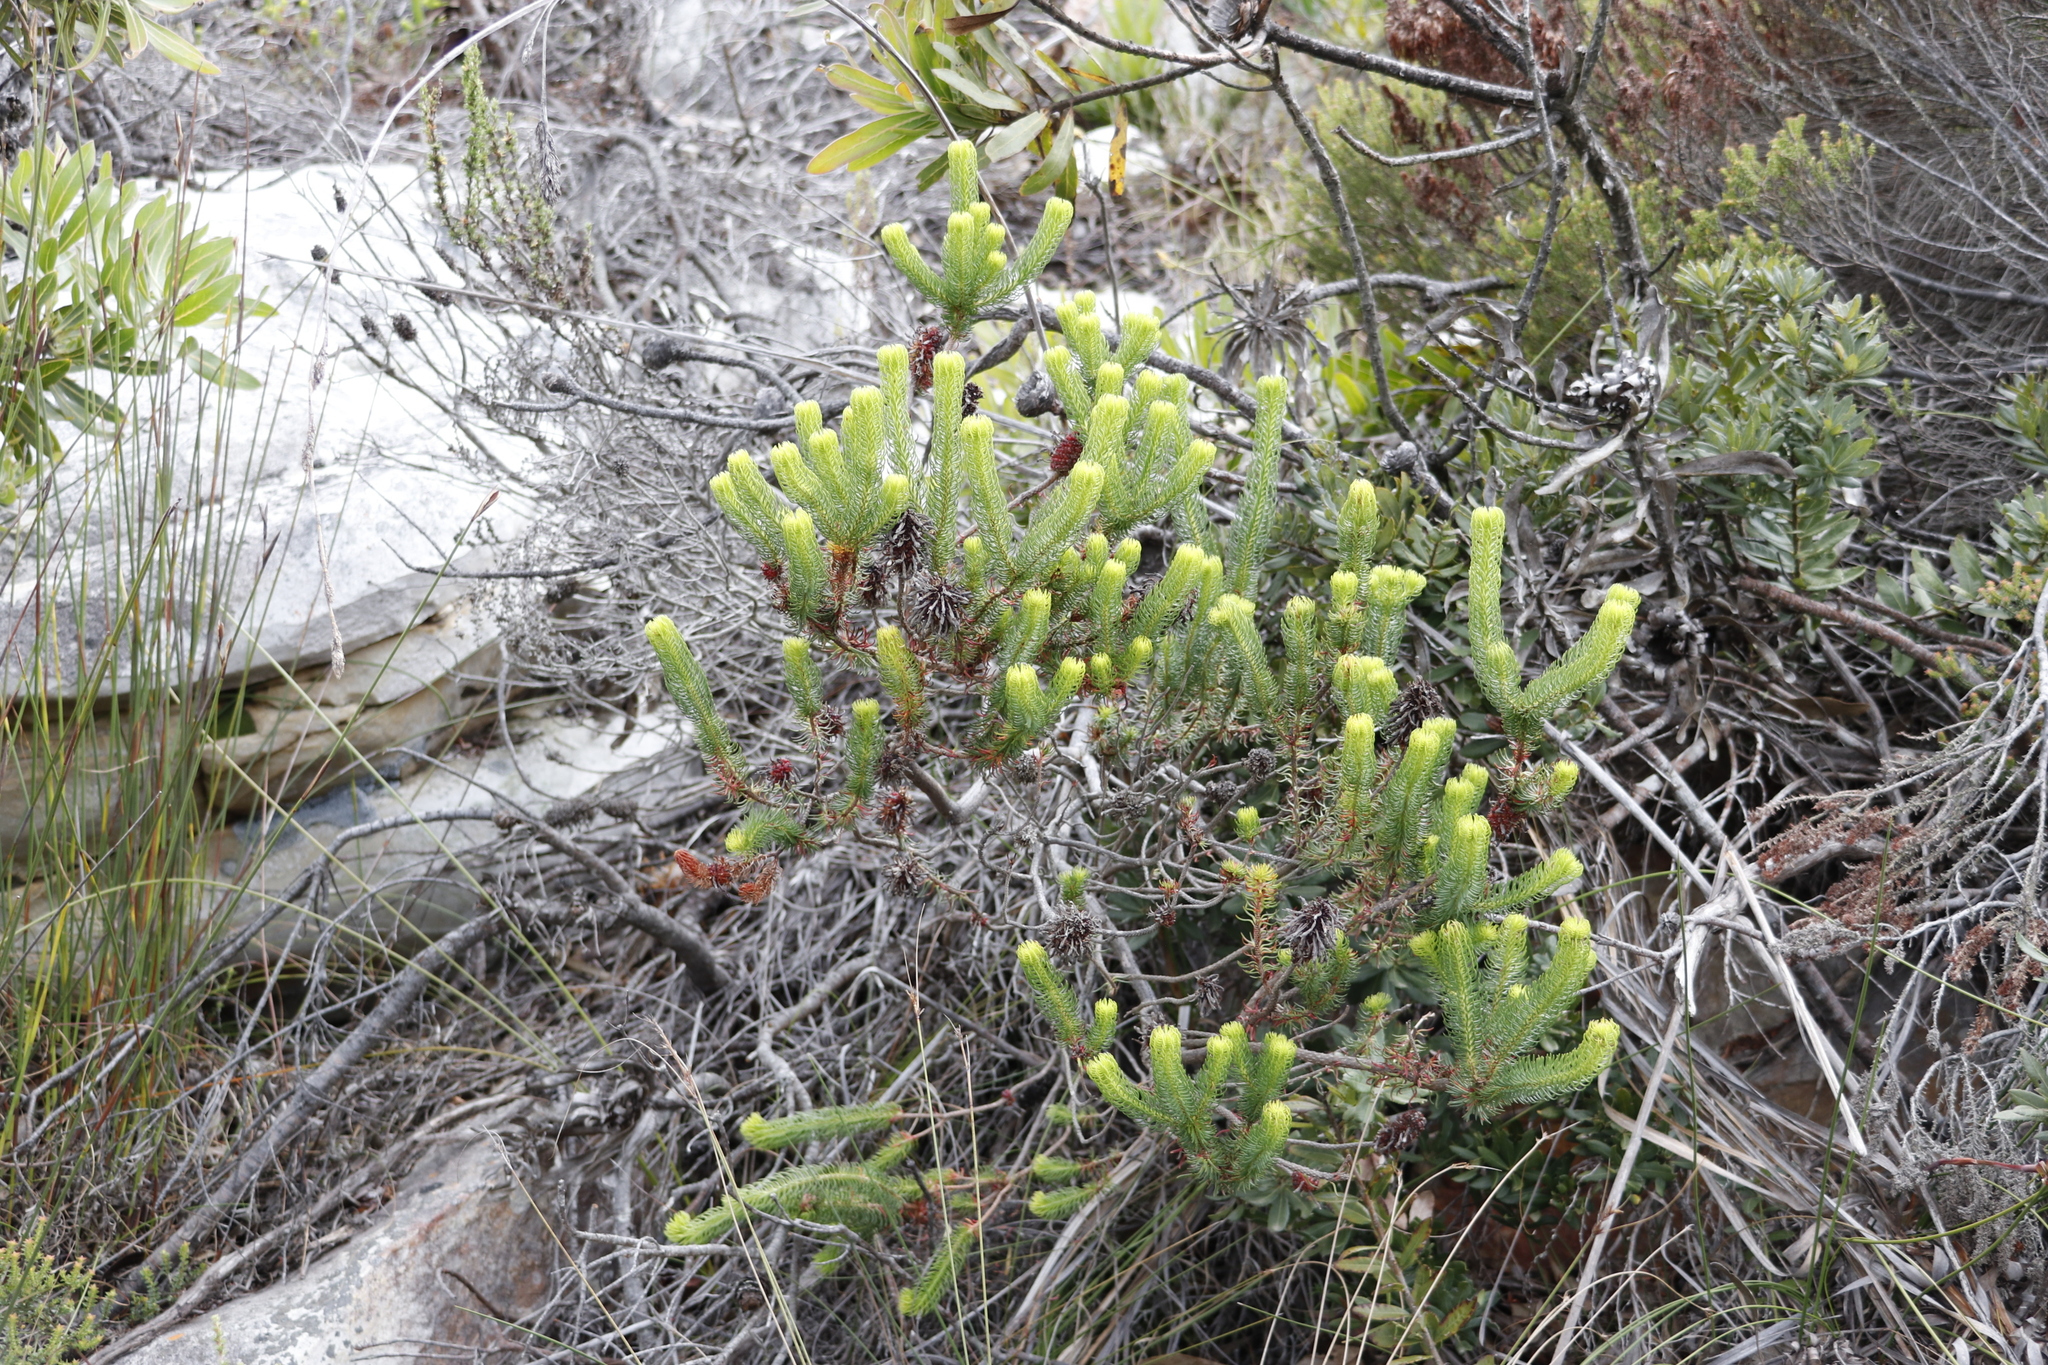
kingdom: Plantae
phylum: Tracheophyta
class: Magnoliopsida
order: Ericales
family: Ericaceae
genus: Erica
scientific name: Erica sessiliflora
